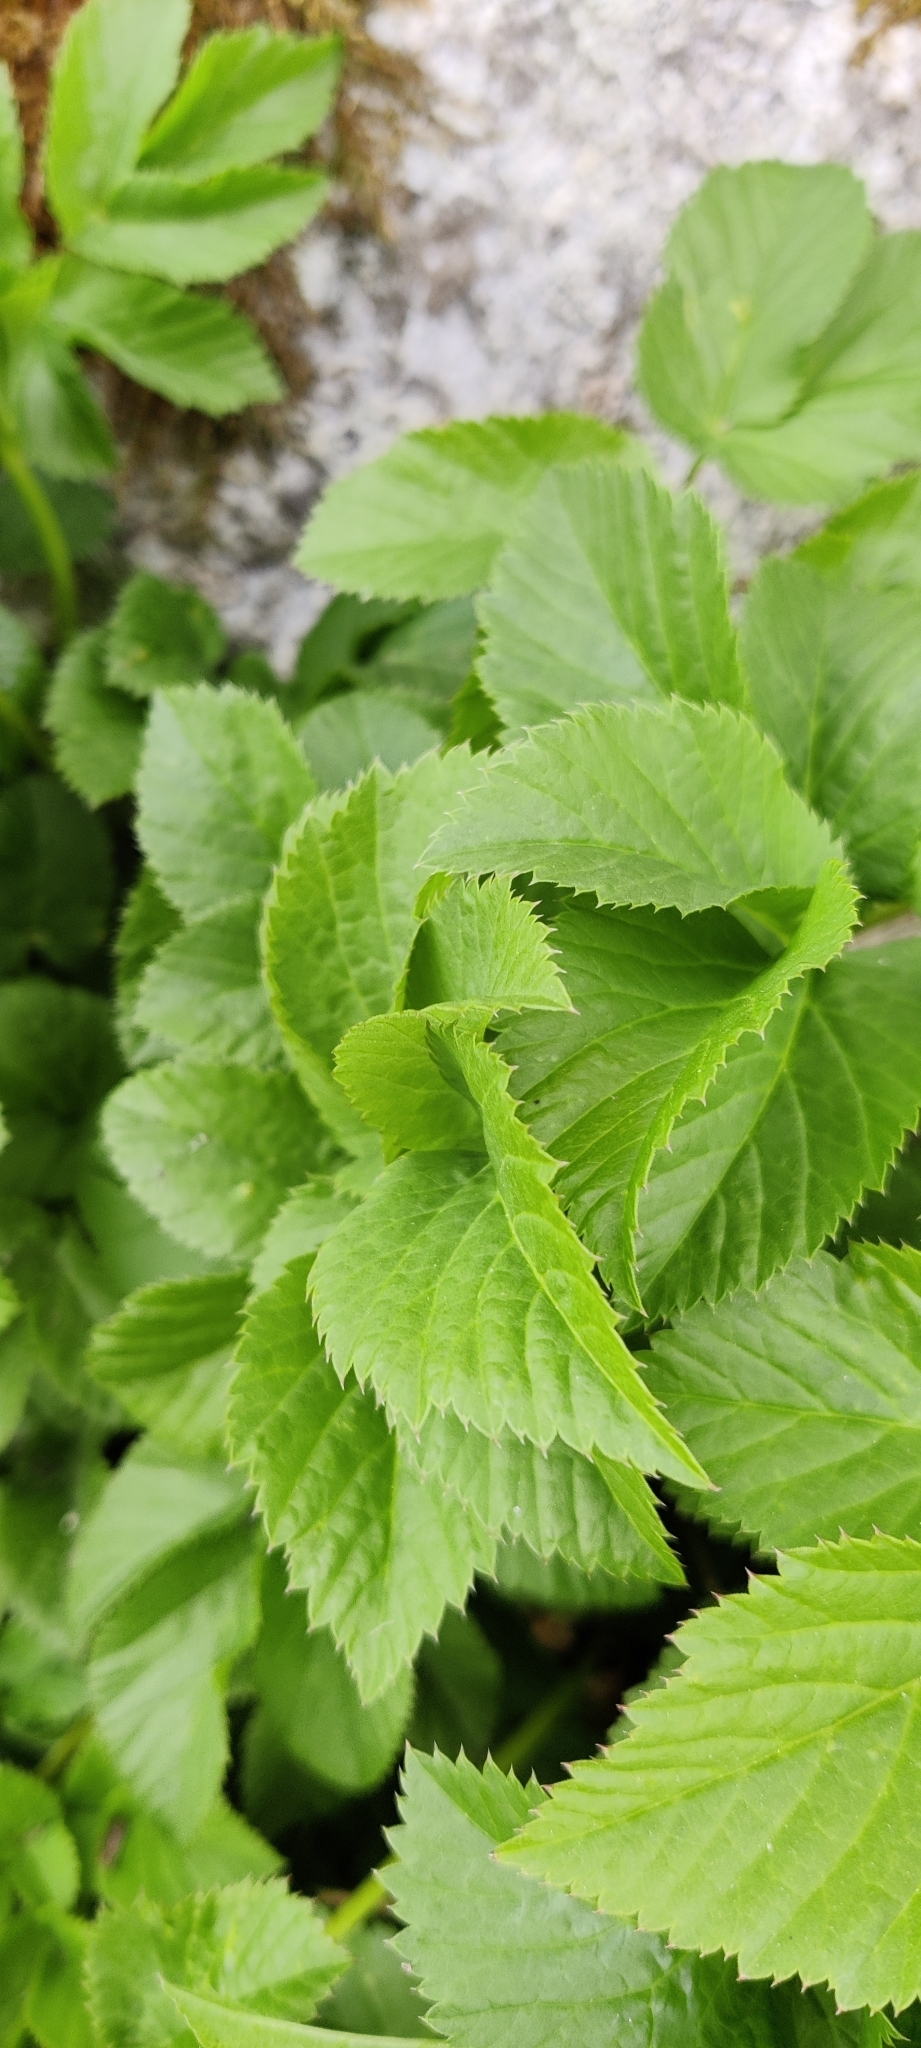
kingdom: Plantae
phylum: Tracheophyta
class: Magnoliopsida
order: Apiales
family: Apiaceae
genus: Aegopodium
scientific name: Aegopodium podagraria
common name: Ground-elder
